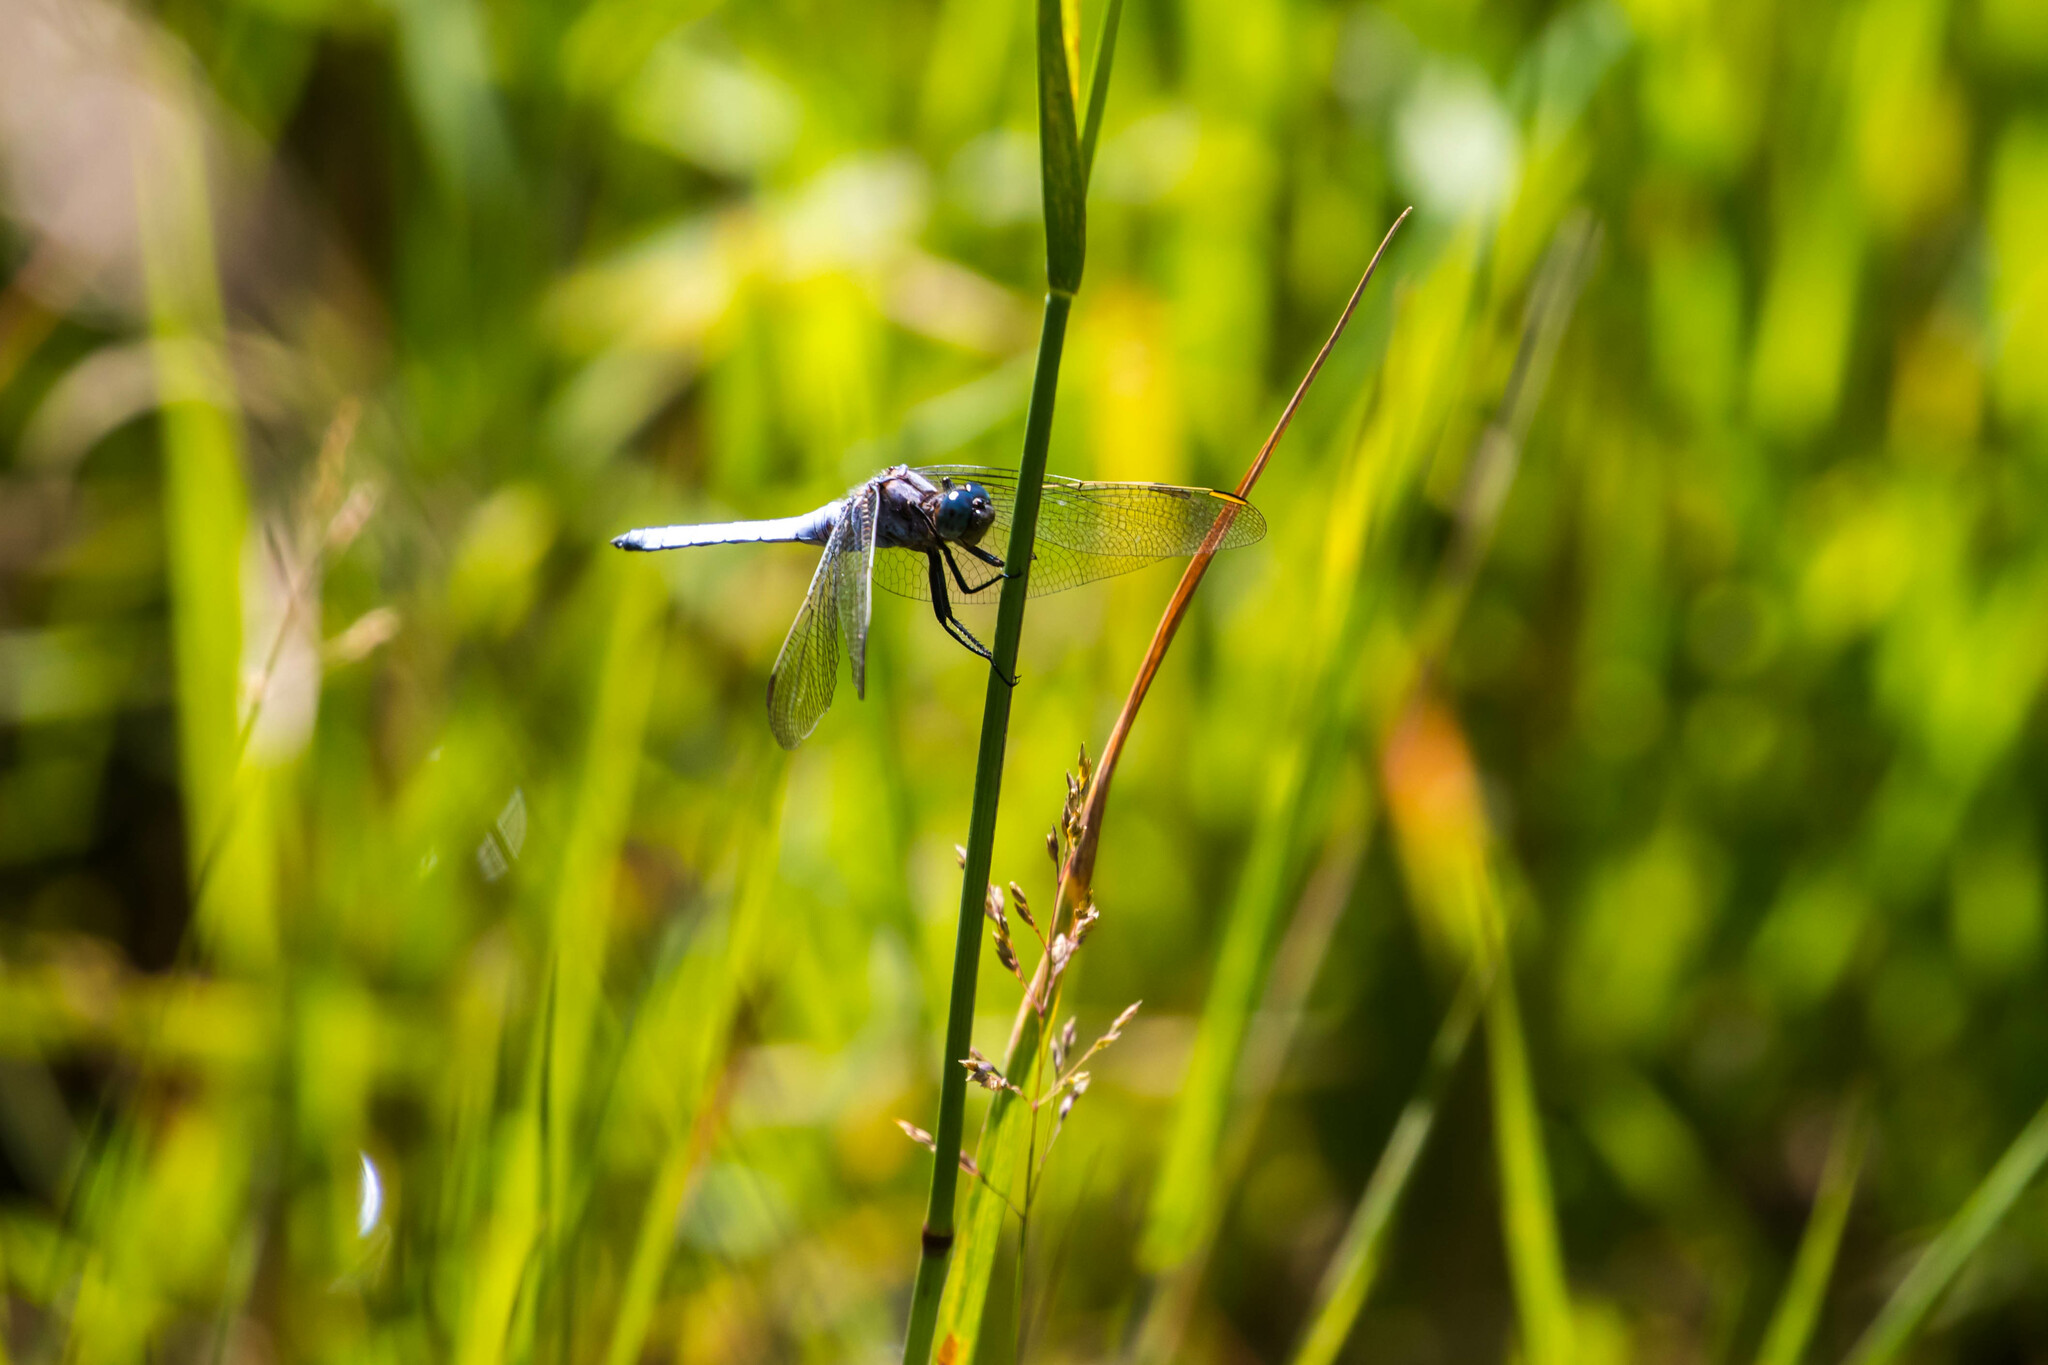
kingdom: Animalia
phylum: Arthropoda
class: Insecta
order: Odonata
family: Libellulidae
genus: Orthetrum
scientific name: Orthetrum coerulescens
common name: Keeled skimmer
